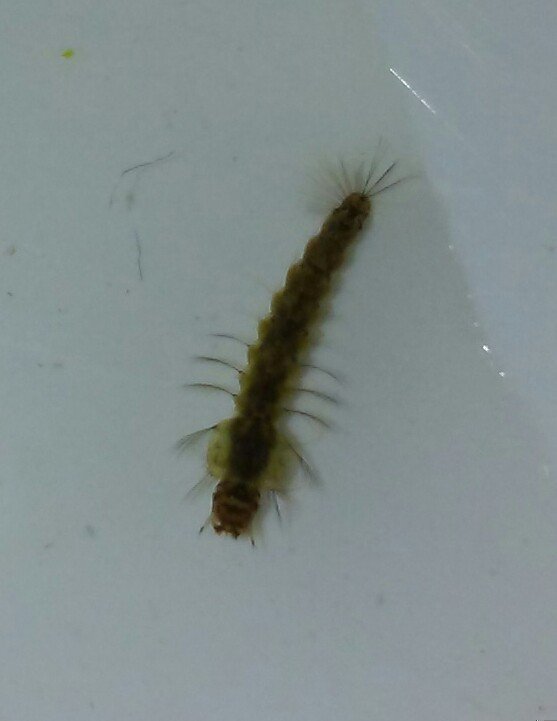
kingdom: Animalia
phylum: Arthropoda
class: Insecta
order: Diptera
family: Culicidae
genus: Anopheles
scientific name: Anopheles punctipennis
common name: Woodland malaria mosquito
